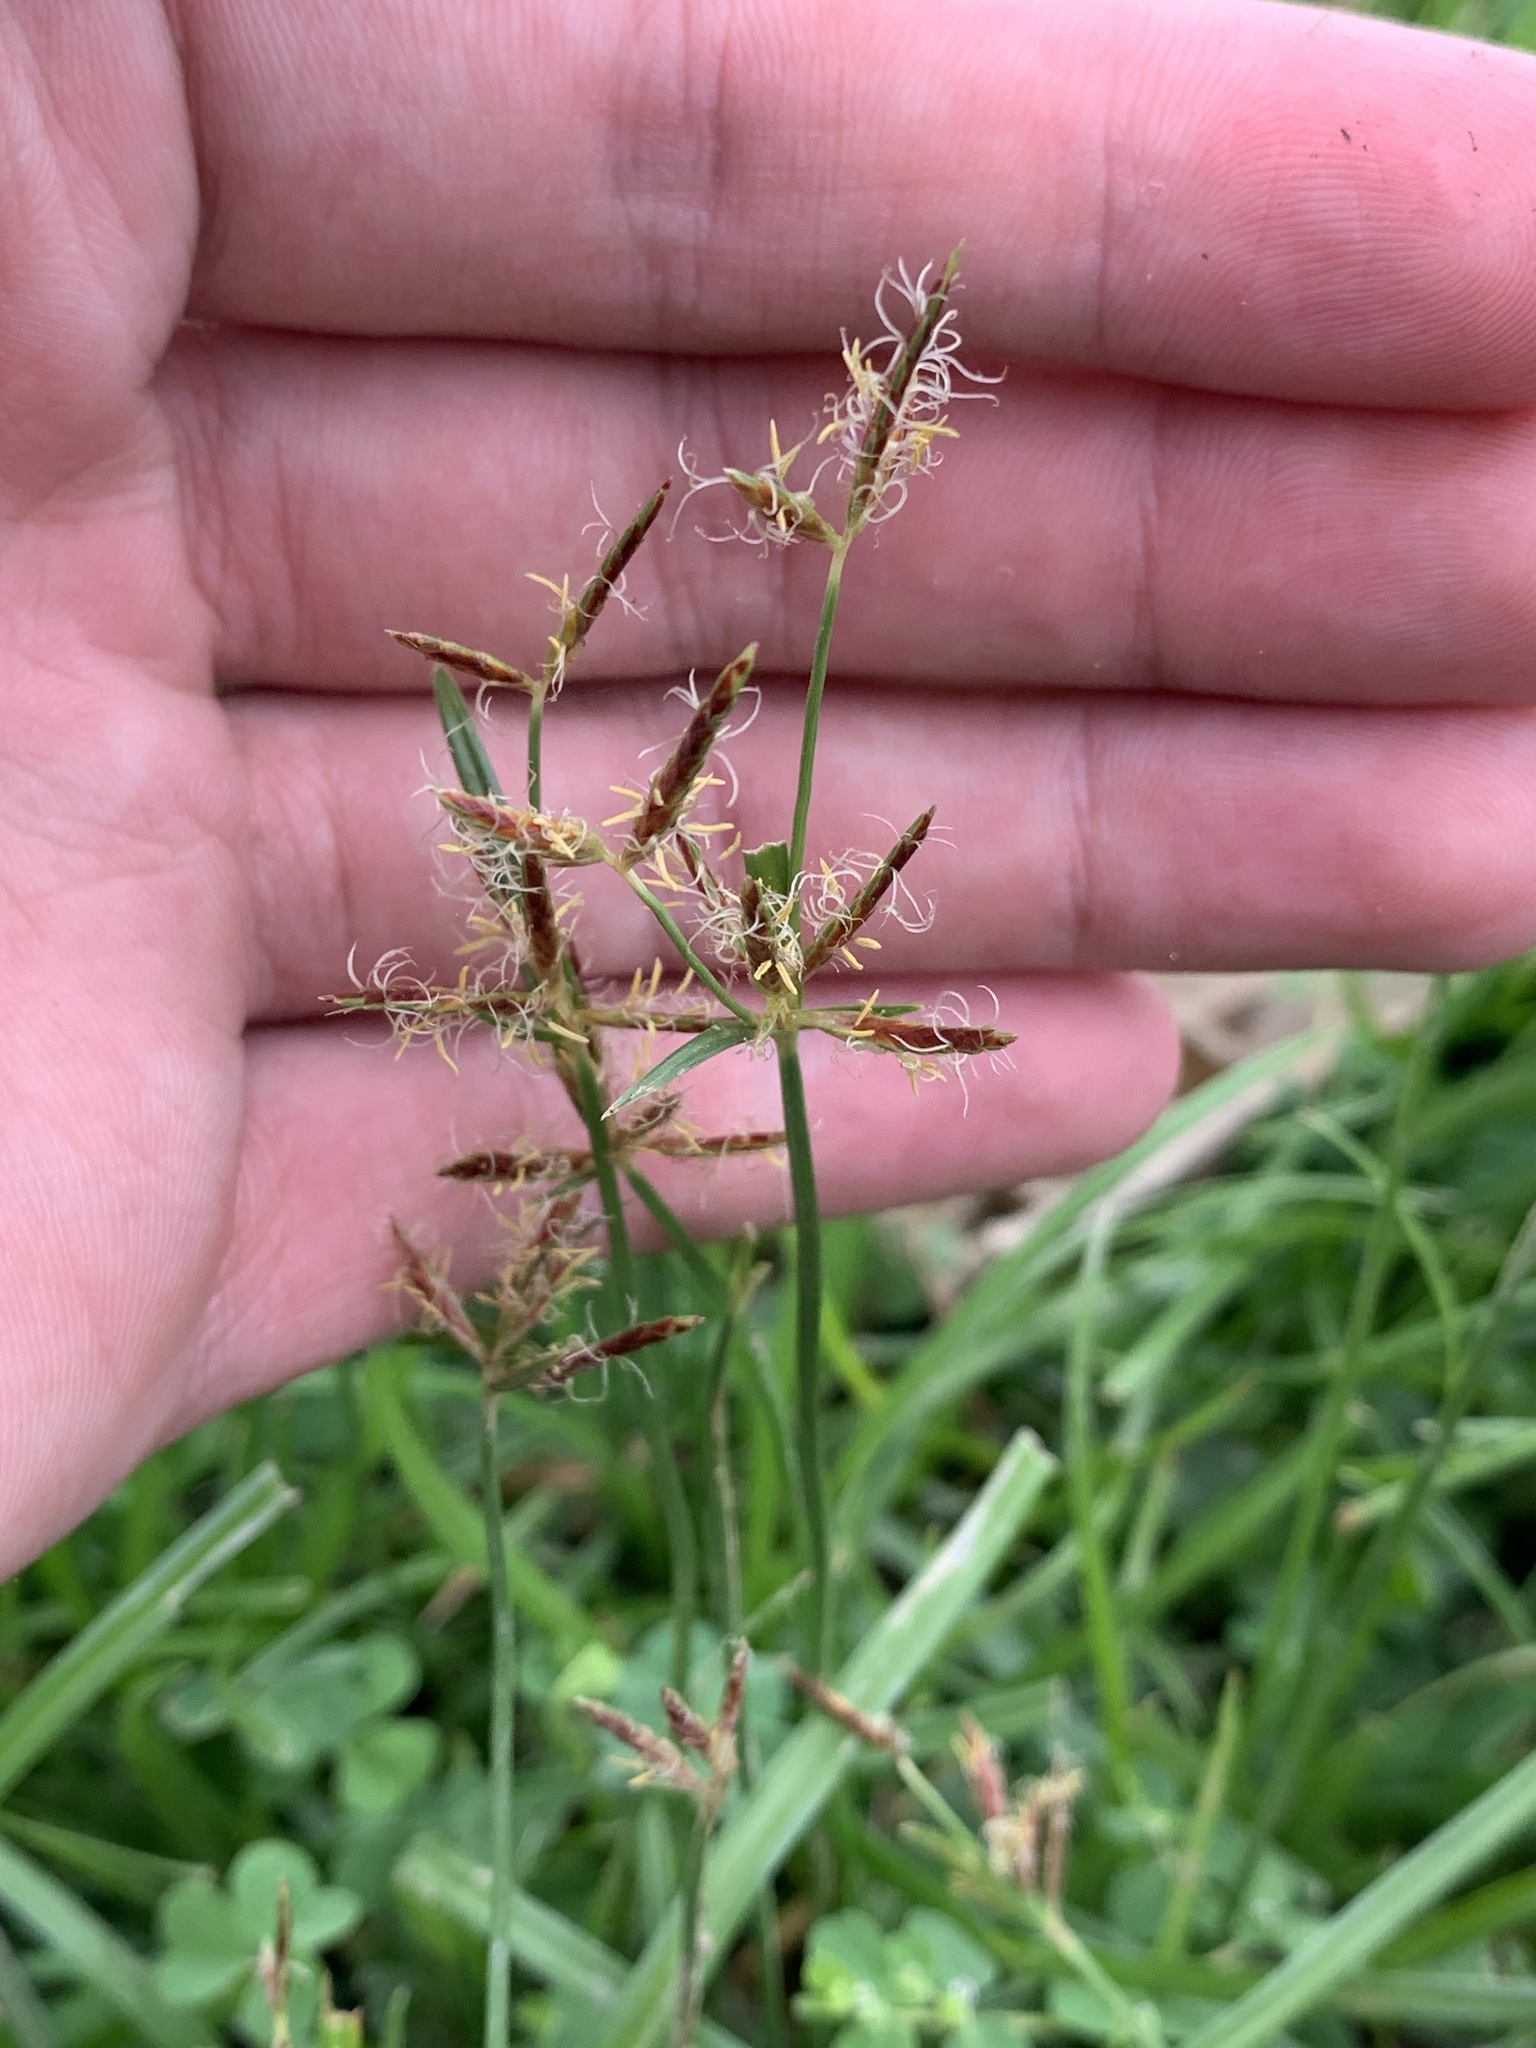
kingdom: Plantae
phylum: Tracheophyta
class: Liliopsida
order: Poales
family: Cyperaceae
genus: Cyperus
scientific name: Cyperus rotundus
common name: Nutgrass
